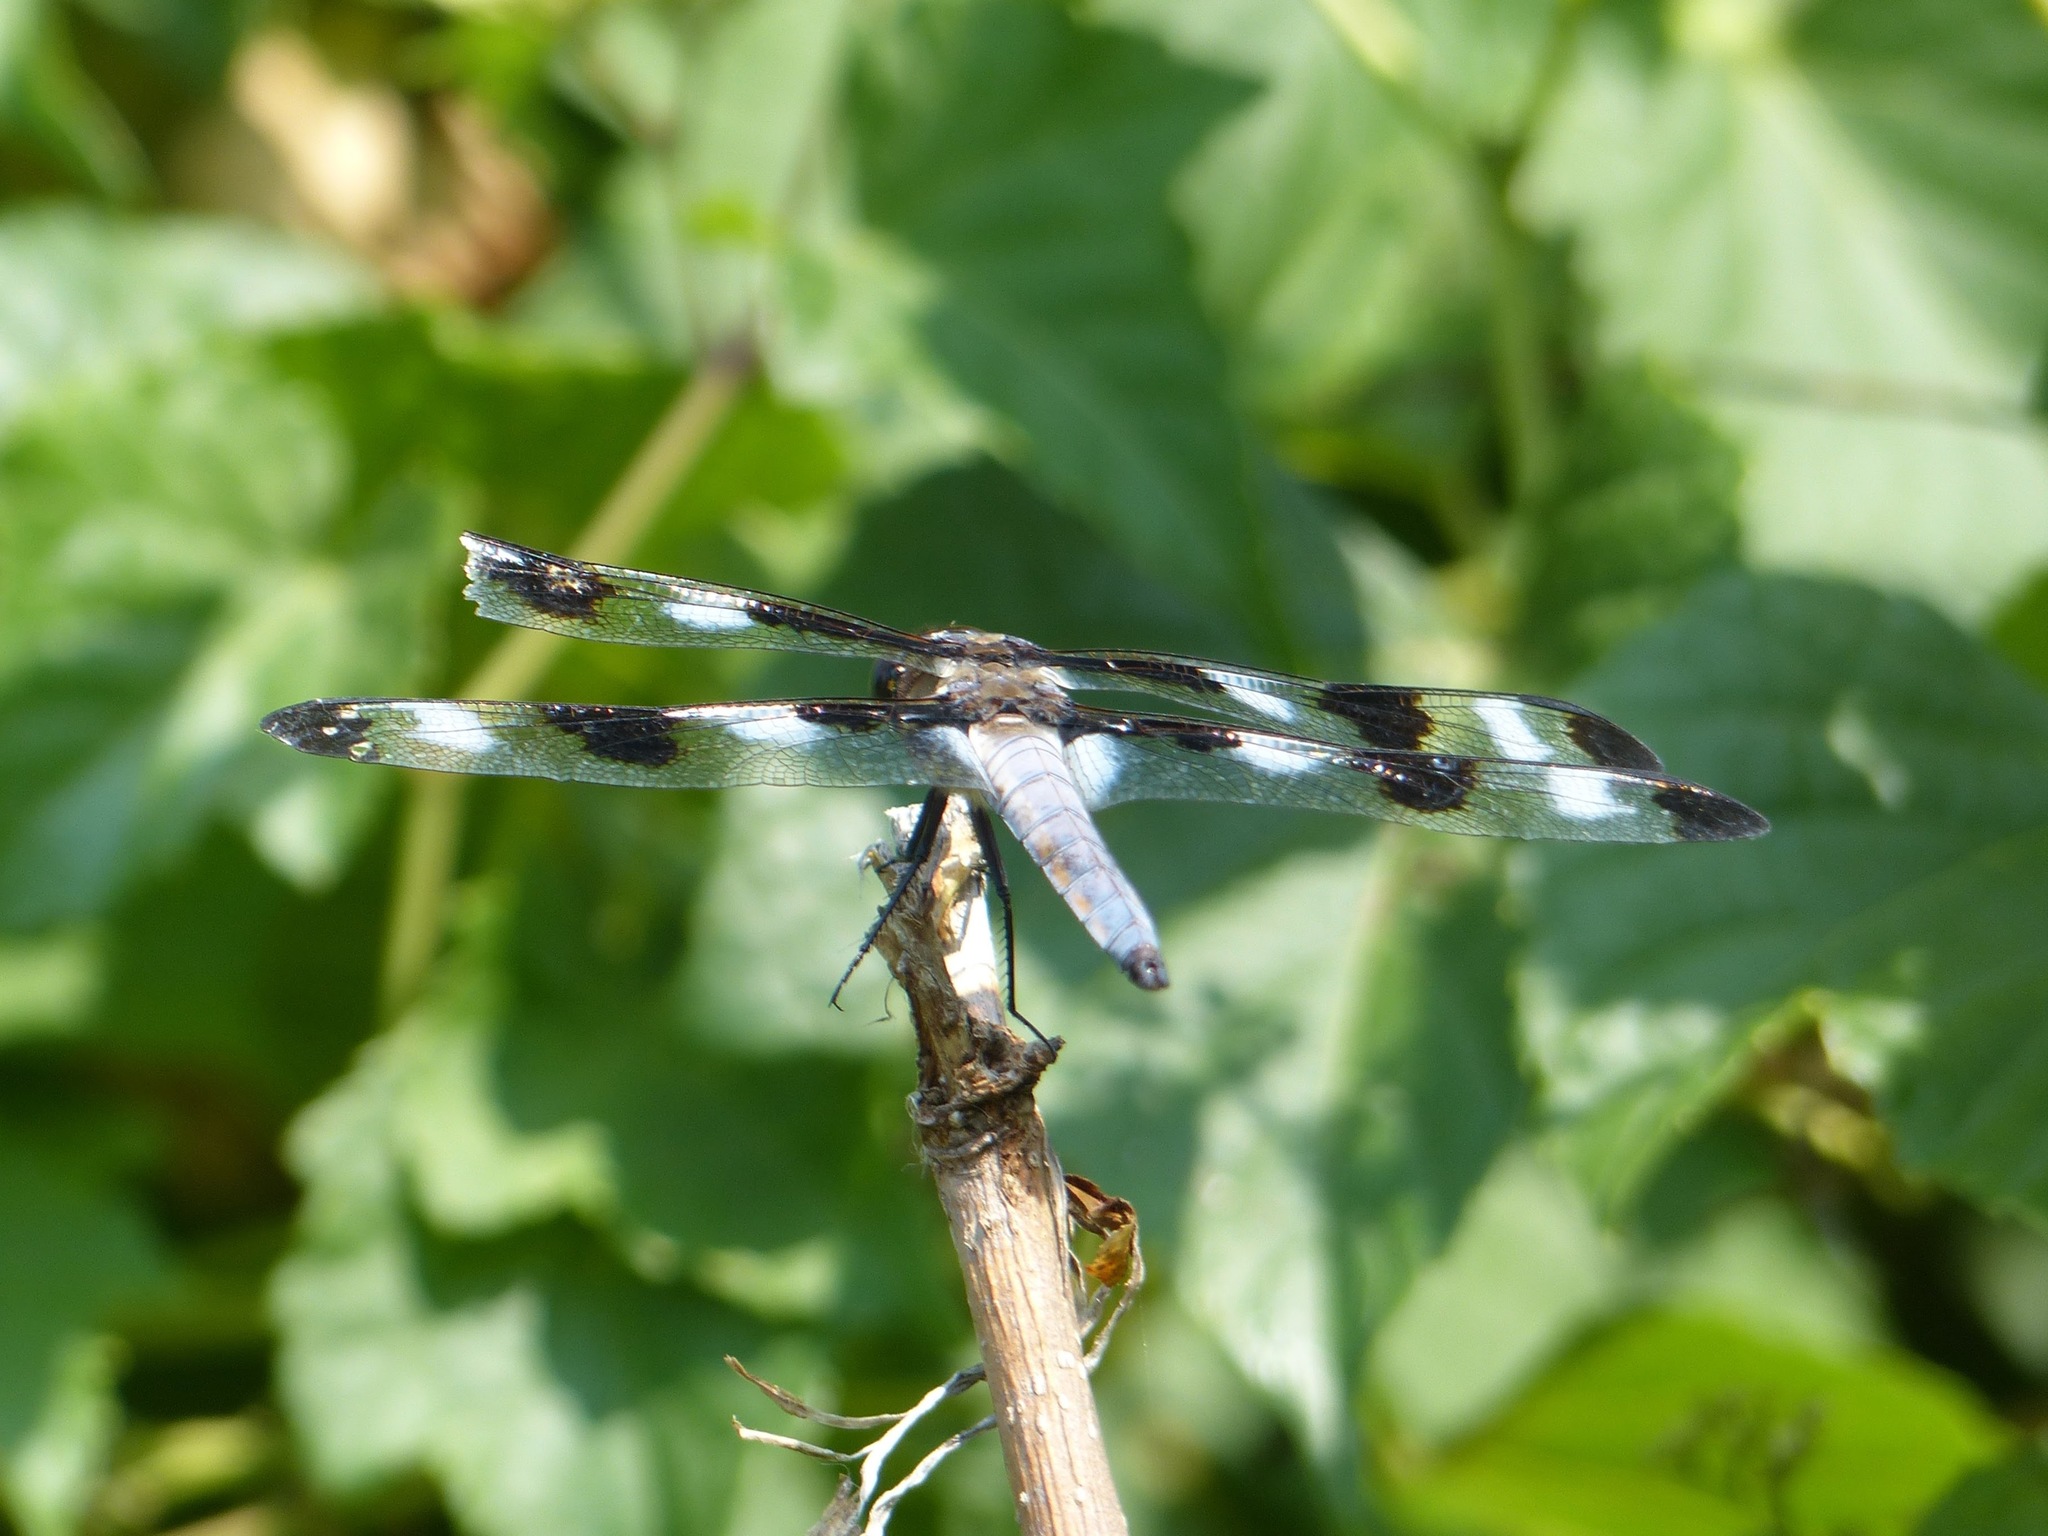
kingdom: Animalia
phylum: Arthropoda
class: Insecta
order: Odonata
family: Libellulidae
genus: Libellula
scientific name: Libellula pulchella
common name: Twelve-spotted skimmer
